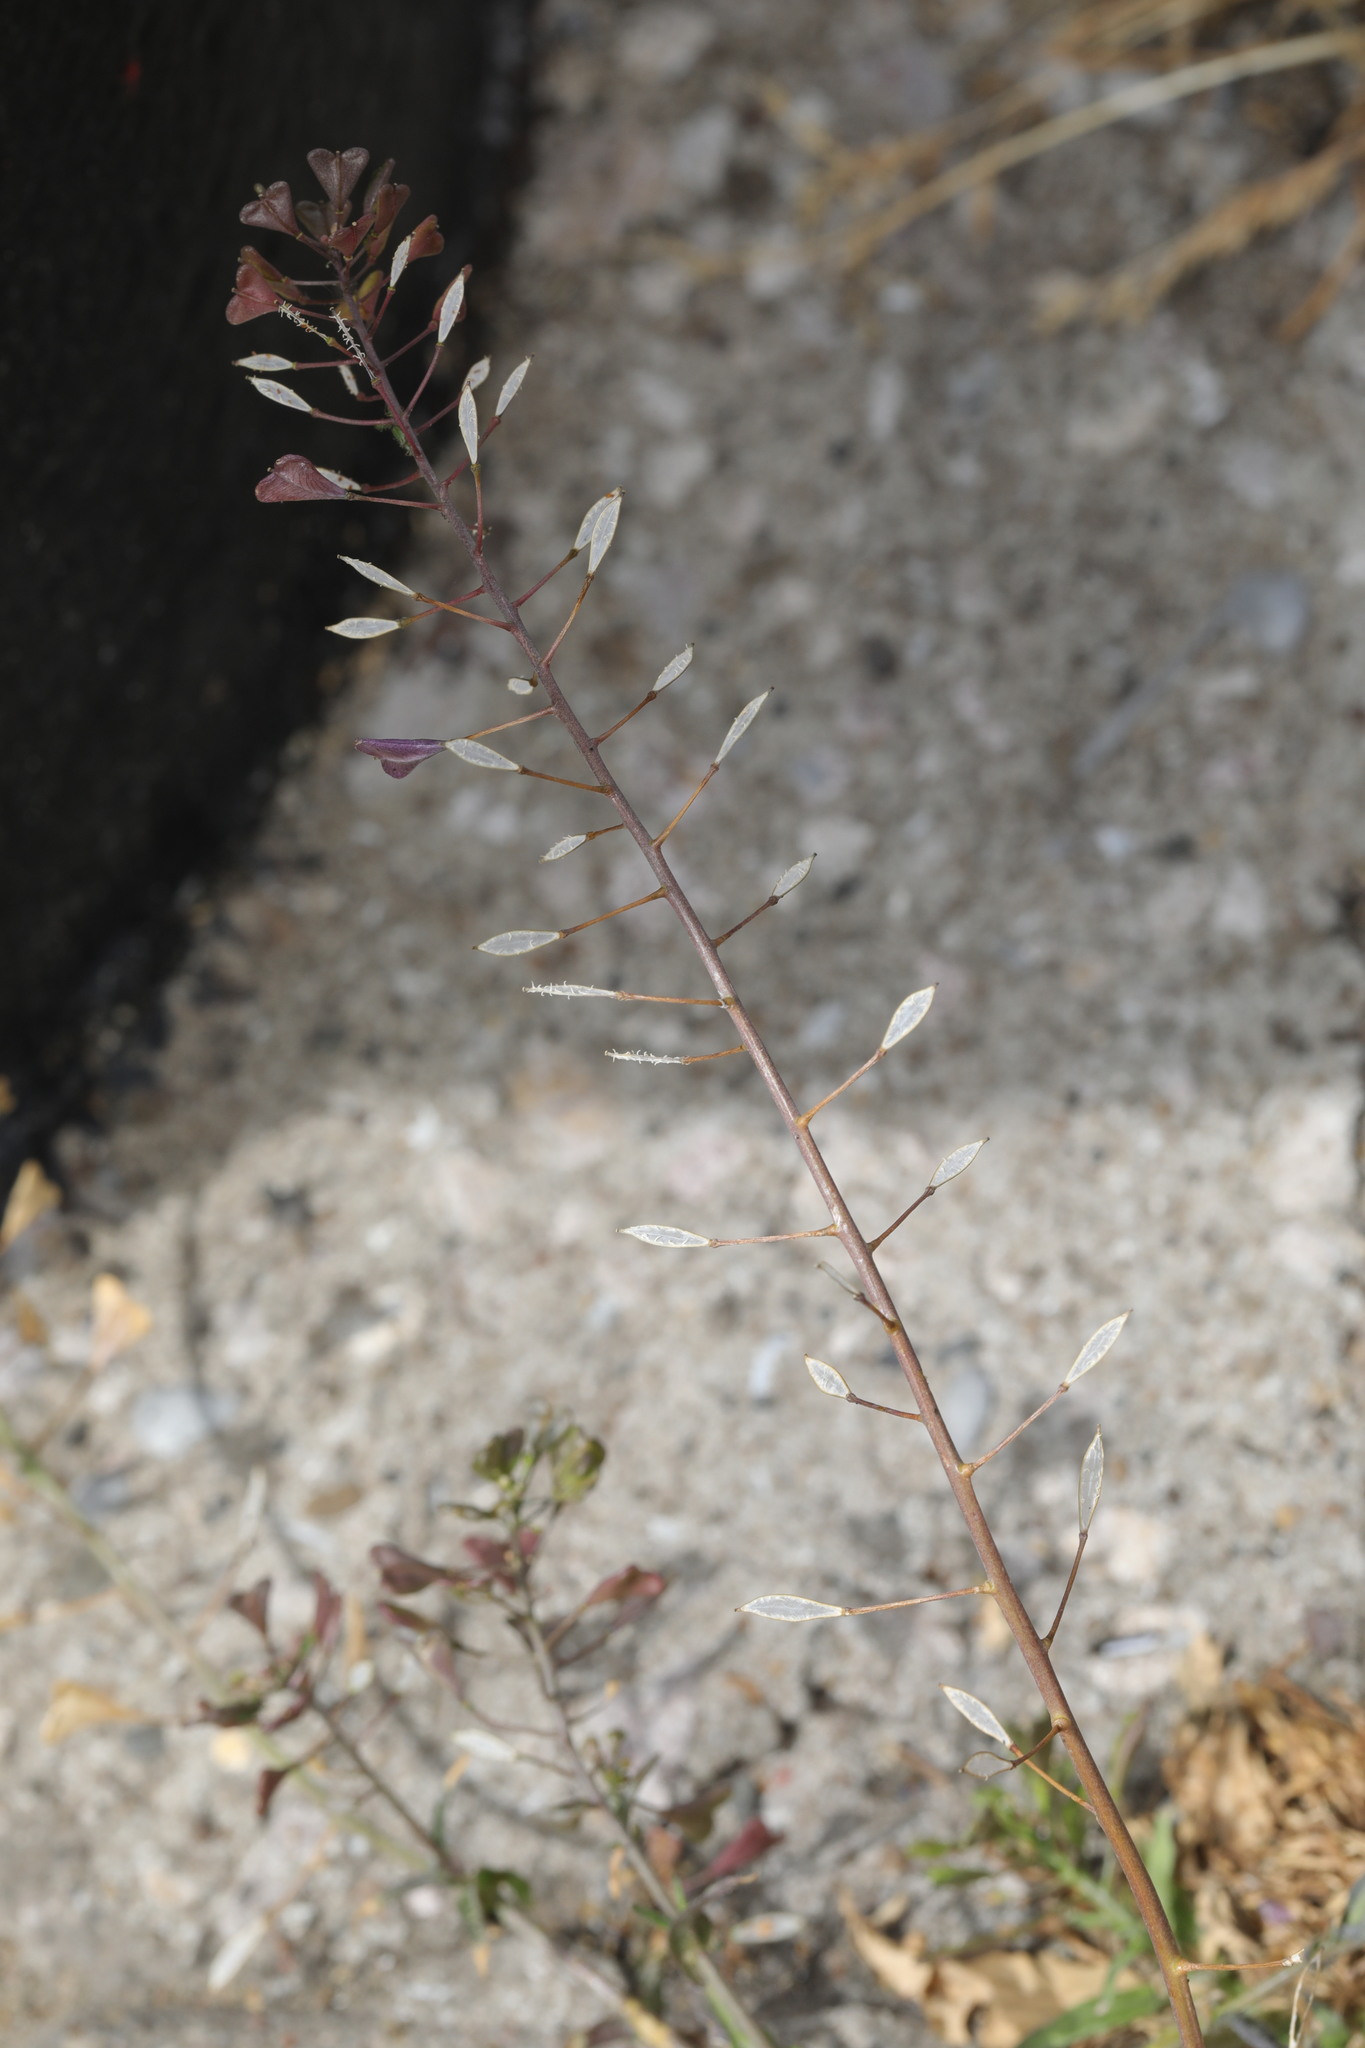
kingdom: Plantae
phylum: Tracheophyta
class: Magnoliopsida
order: Brassicales
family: Brassicaceae
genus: Capsella
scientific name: Capsella bursa-pastoris
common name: Shepherd's purse
